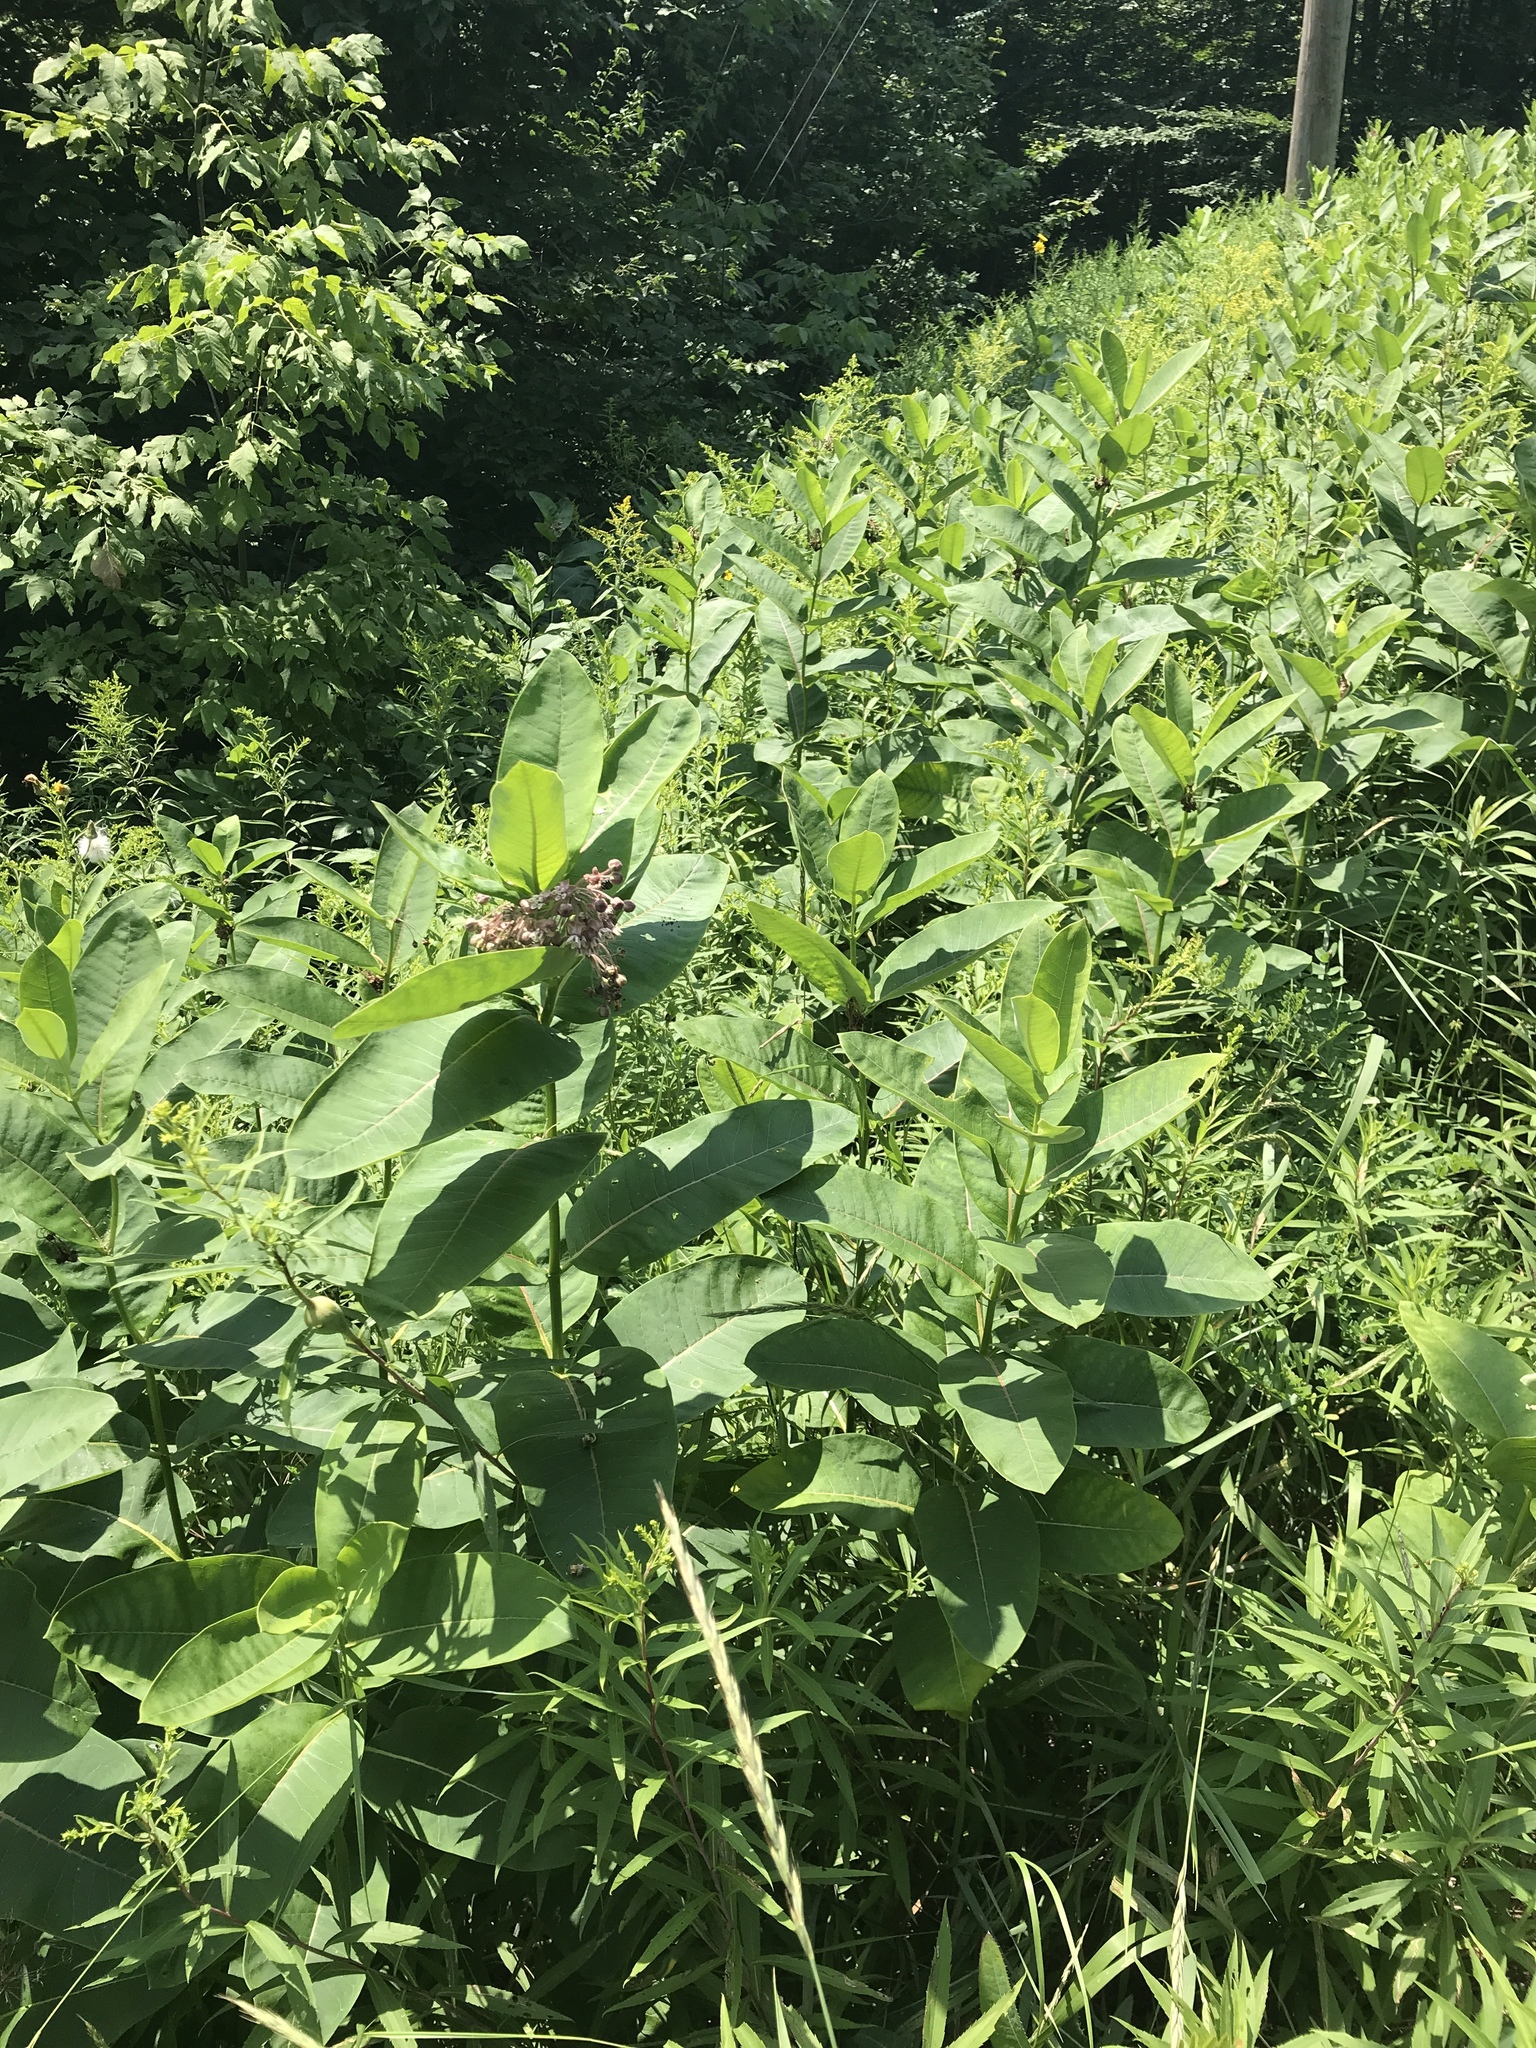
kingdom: Plantae
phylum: Tracheophyta
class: Magnoliopsida
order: Gentianales
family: Apocynaceae
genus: Asclepias
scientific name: Asclepias syriaca
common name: Common milkweed
